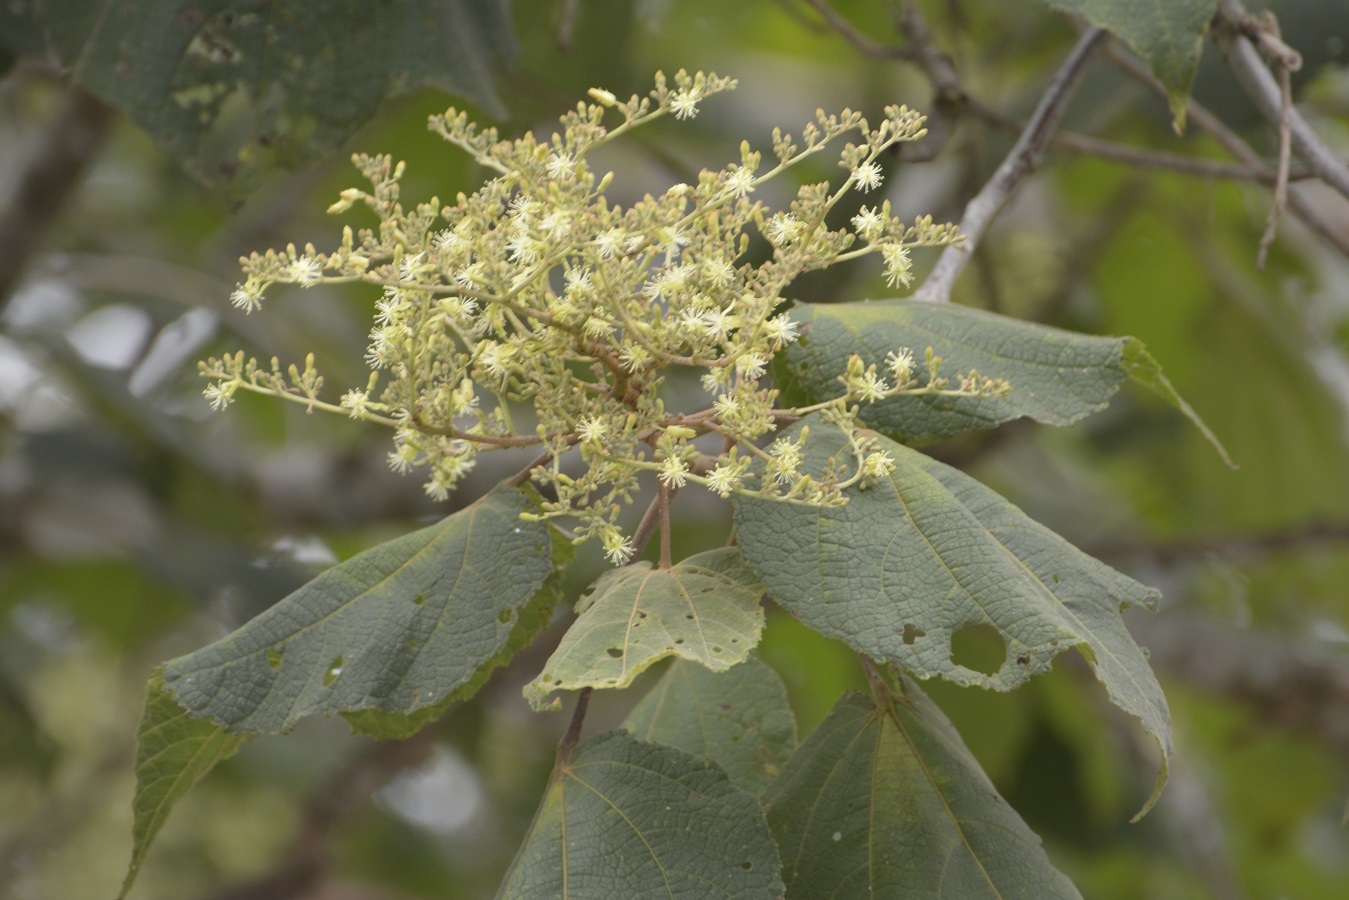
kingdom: Plantae
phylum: Tracheophyta
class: Magnoliopsida
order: Malvales
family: Malvaceae
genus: Heliocarpus
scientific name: Heliocarpus americanus
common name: White moho
